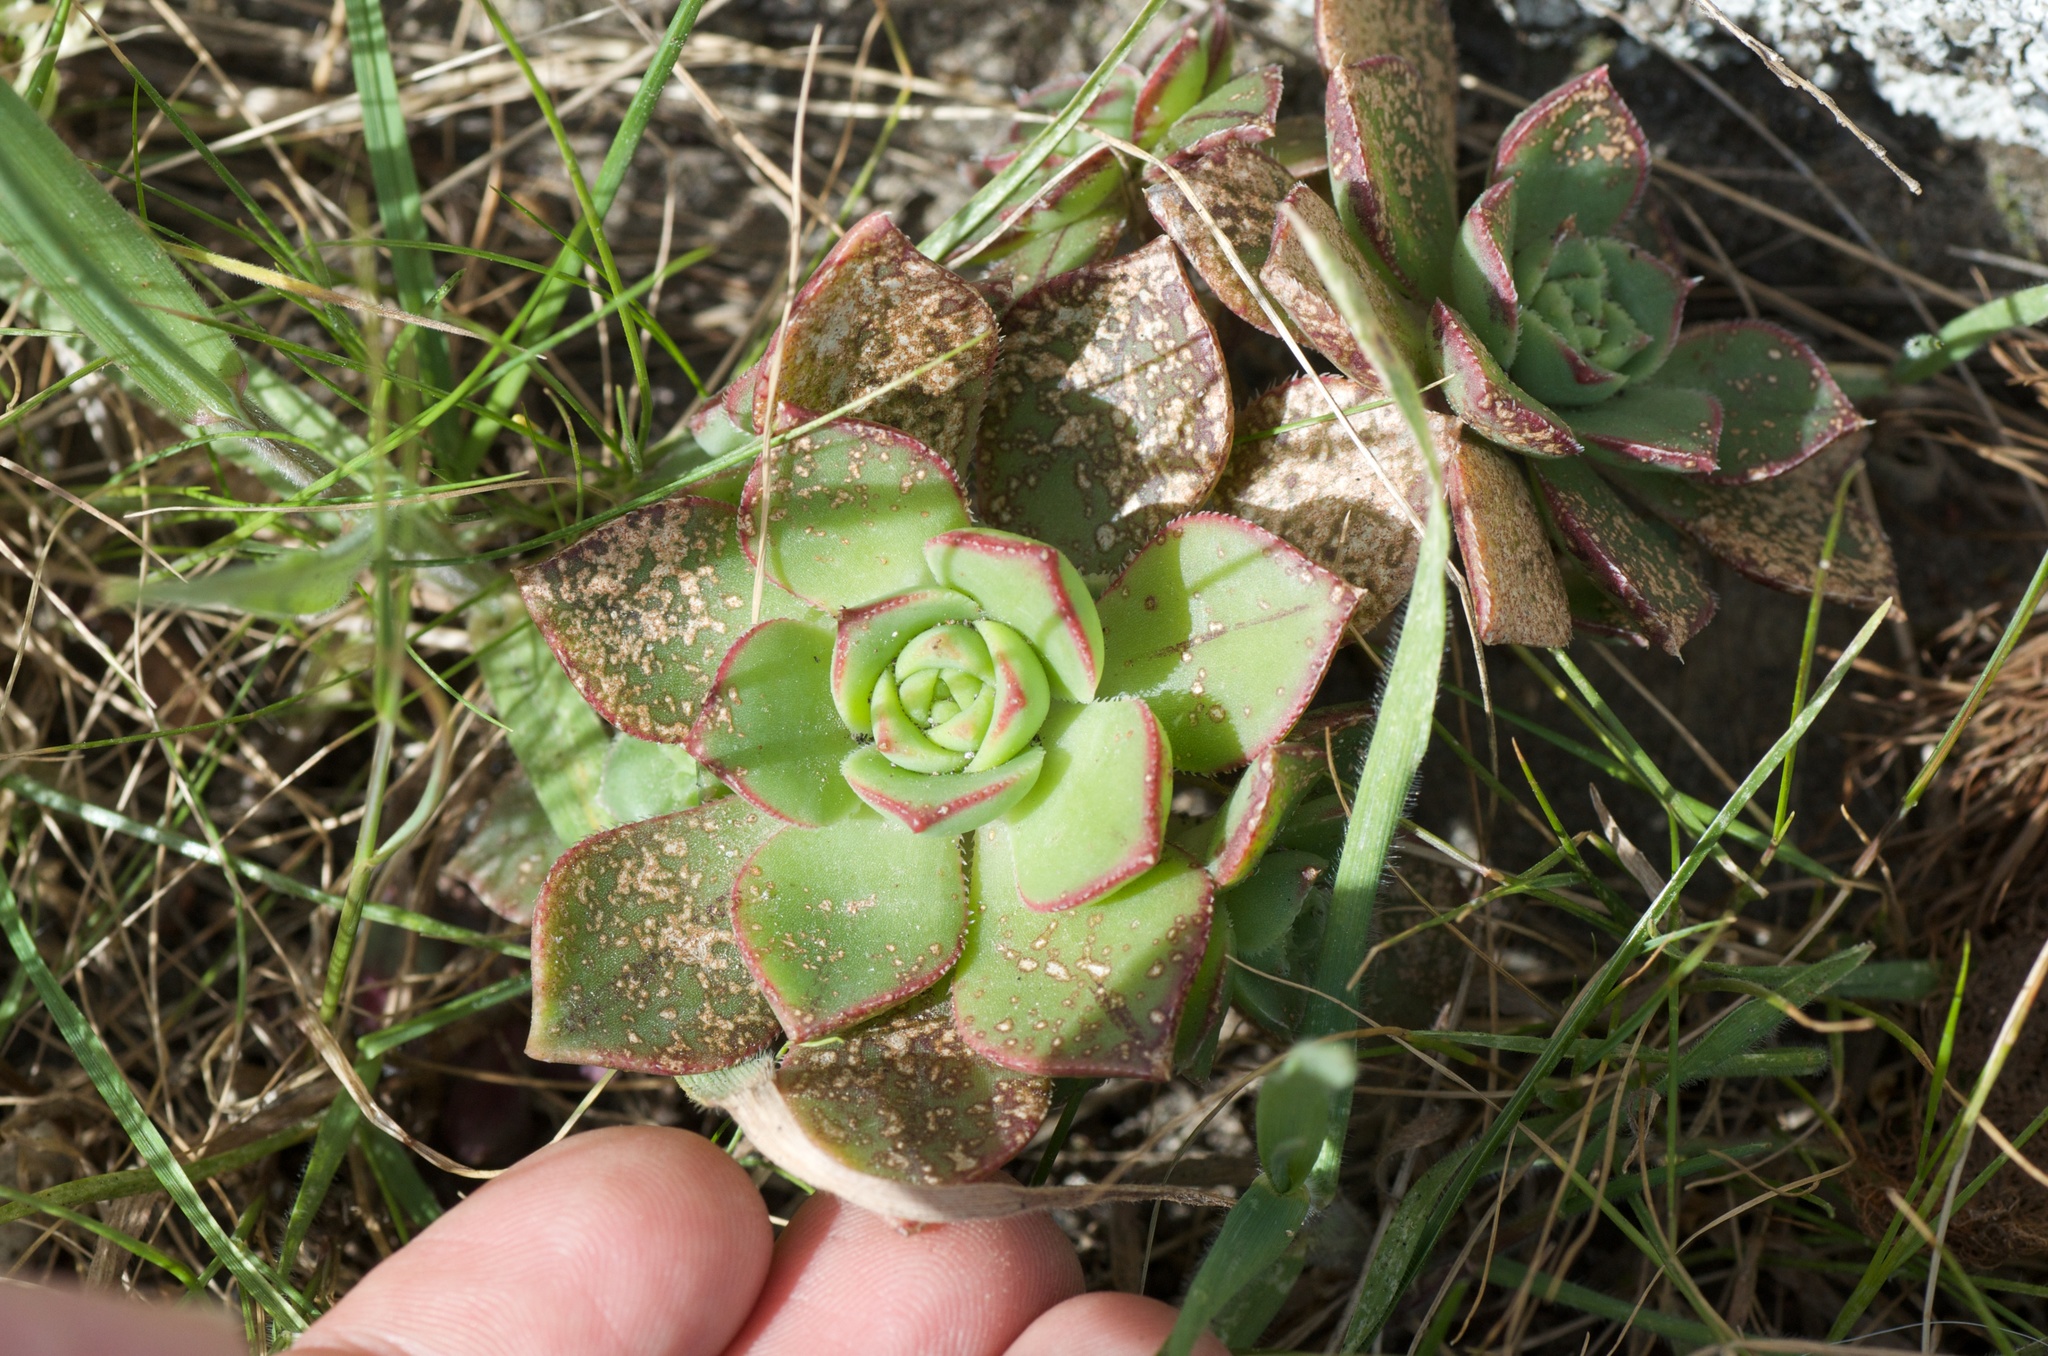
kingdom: Plantae
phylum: Tracheophyta
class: Magnoliopsida
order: Saxifragales
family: Crassulaceae
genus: Aeonium
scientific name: Aeonium haworthii
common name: Haworth's aeonium
